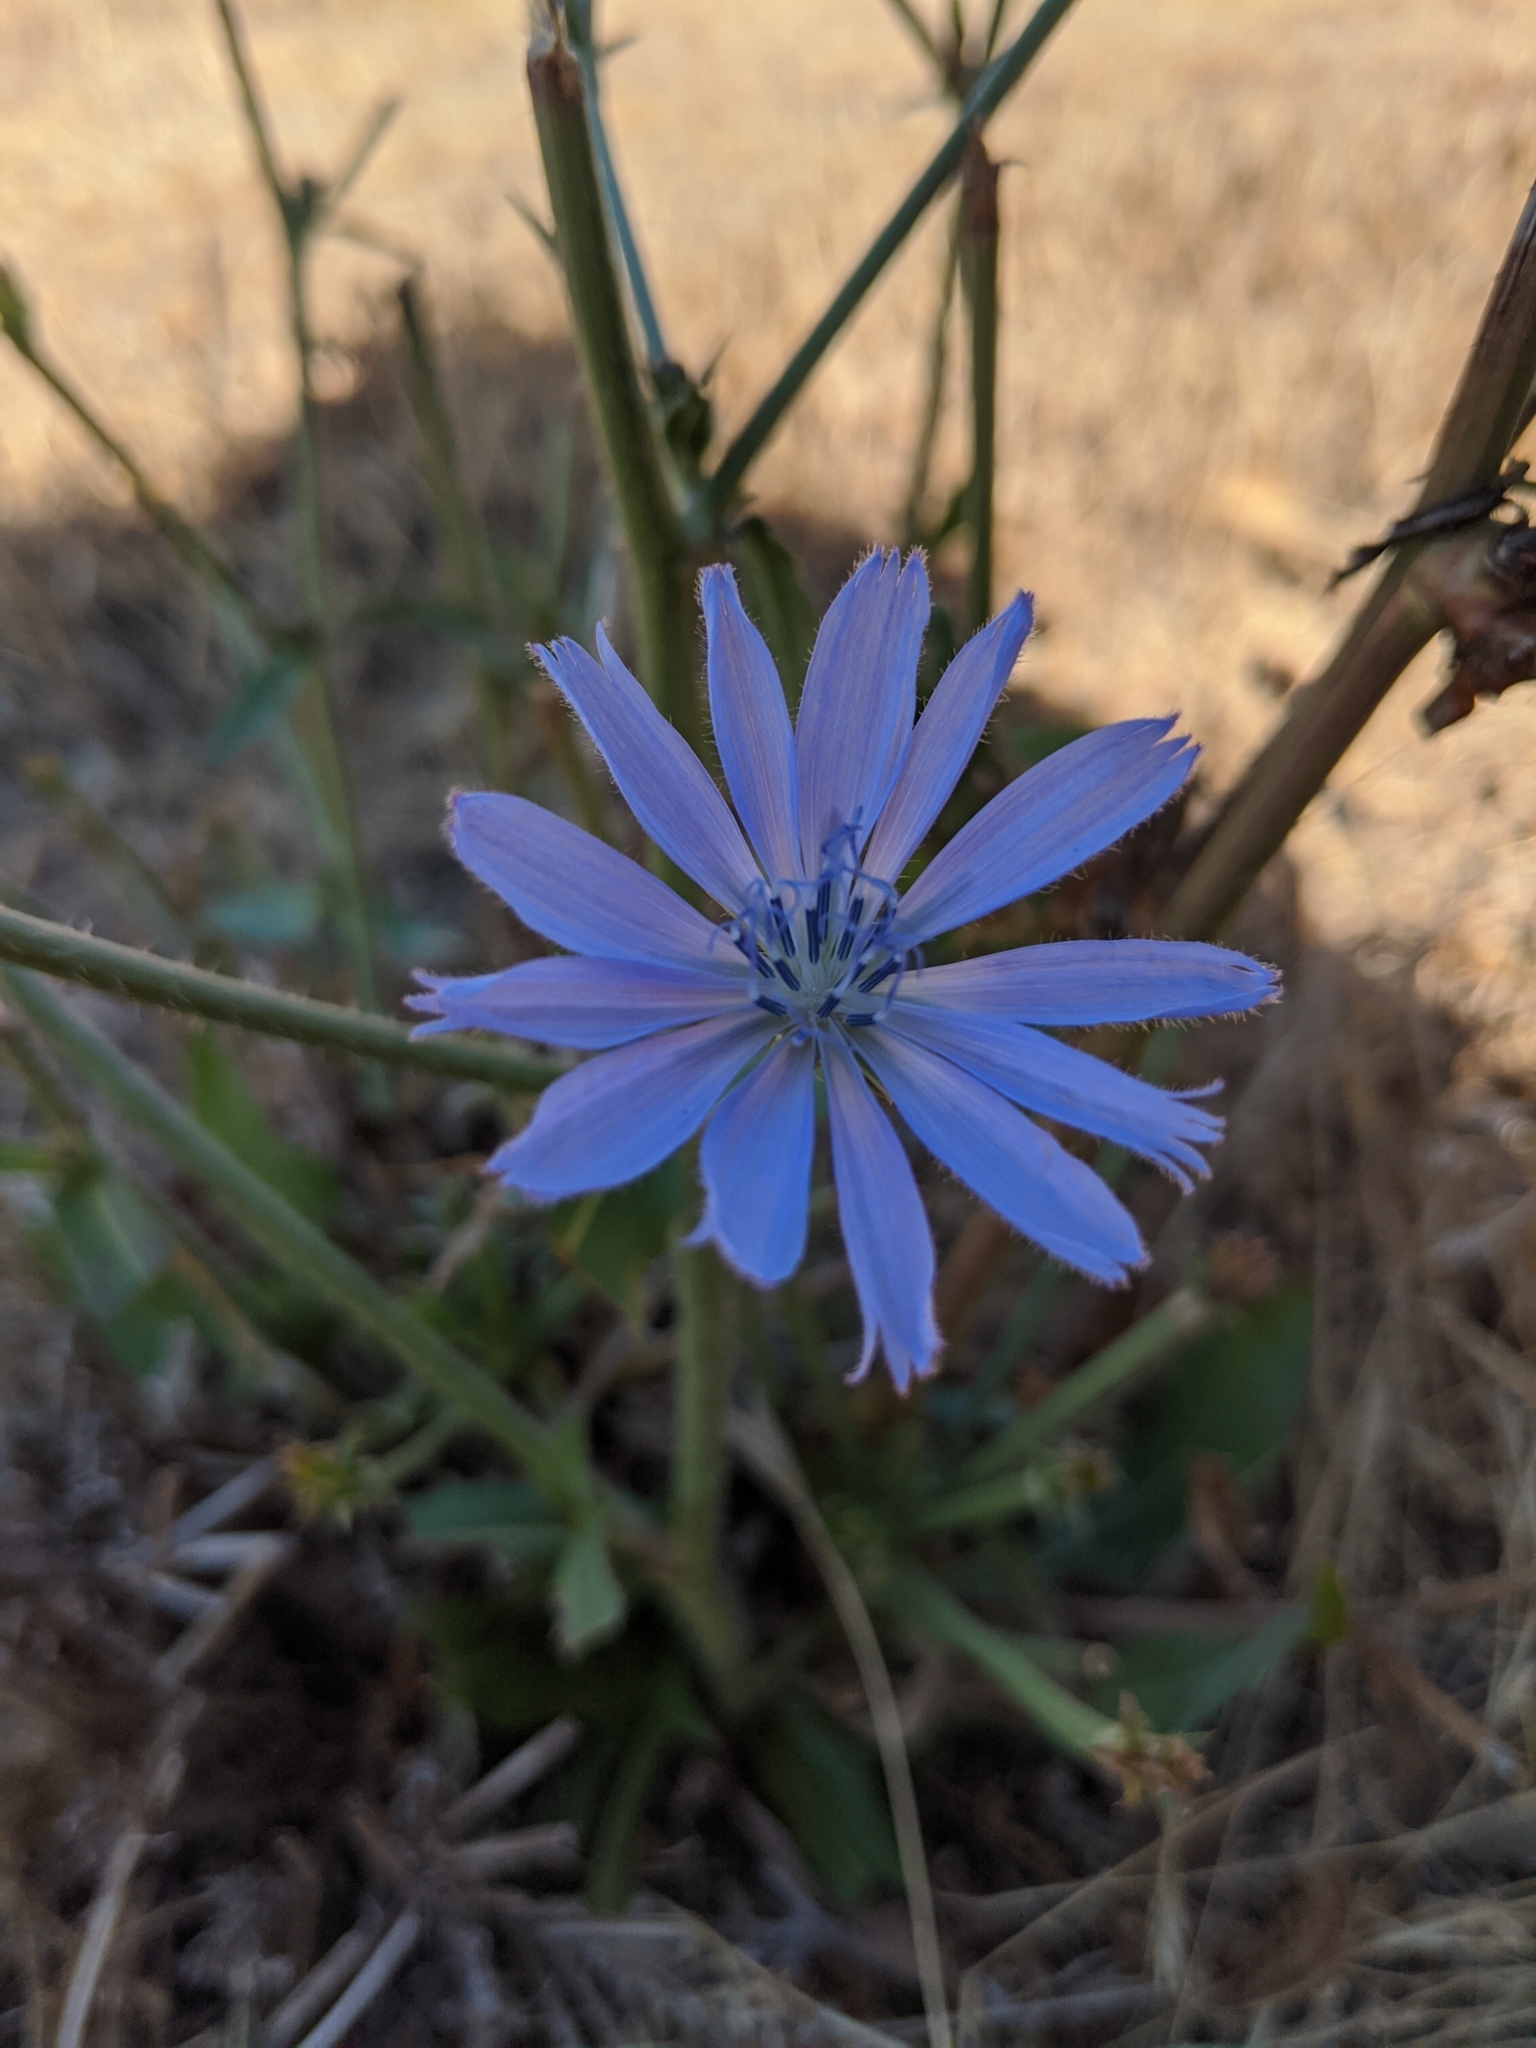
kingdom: Plantae
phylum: Tracheophyta
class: Magnoliopsida
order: Asterales
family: Asteraceae
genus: Cichorium
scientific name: Cichorium intybus
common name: Chicory
